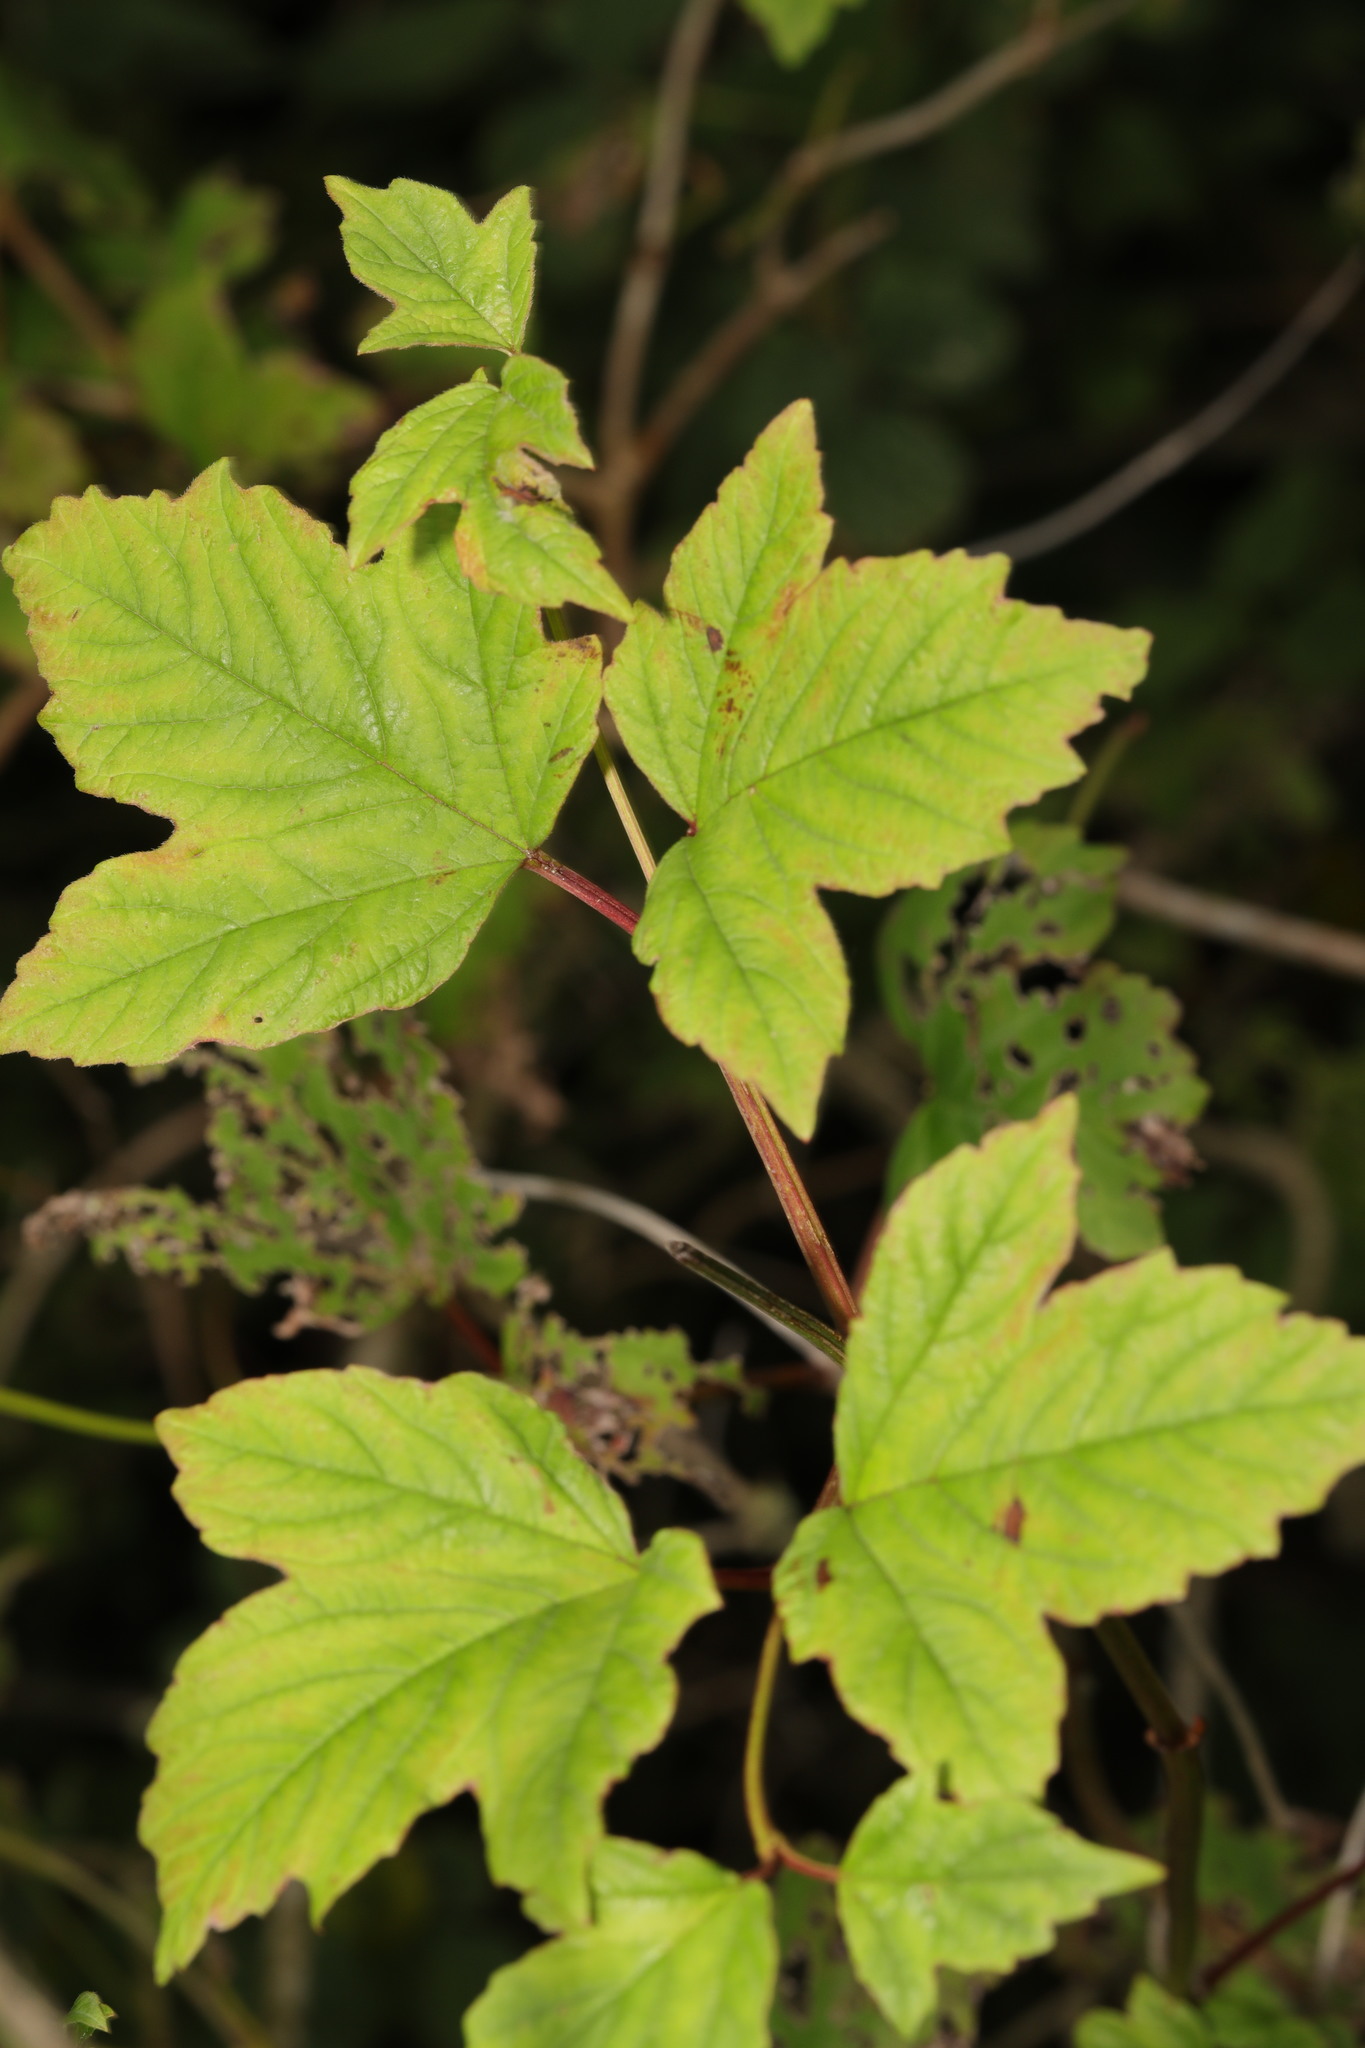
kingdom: Plantae
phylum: Tracheophyta
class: Magnoliopsida
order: Dipsacales
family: Viburnaceae
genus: Viburnum
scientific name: Viburnum opulus
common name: Guelder-rose
